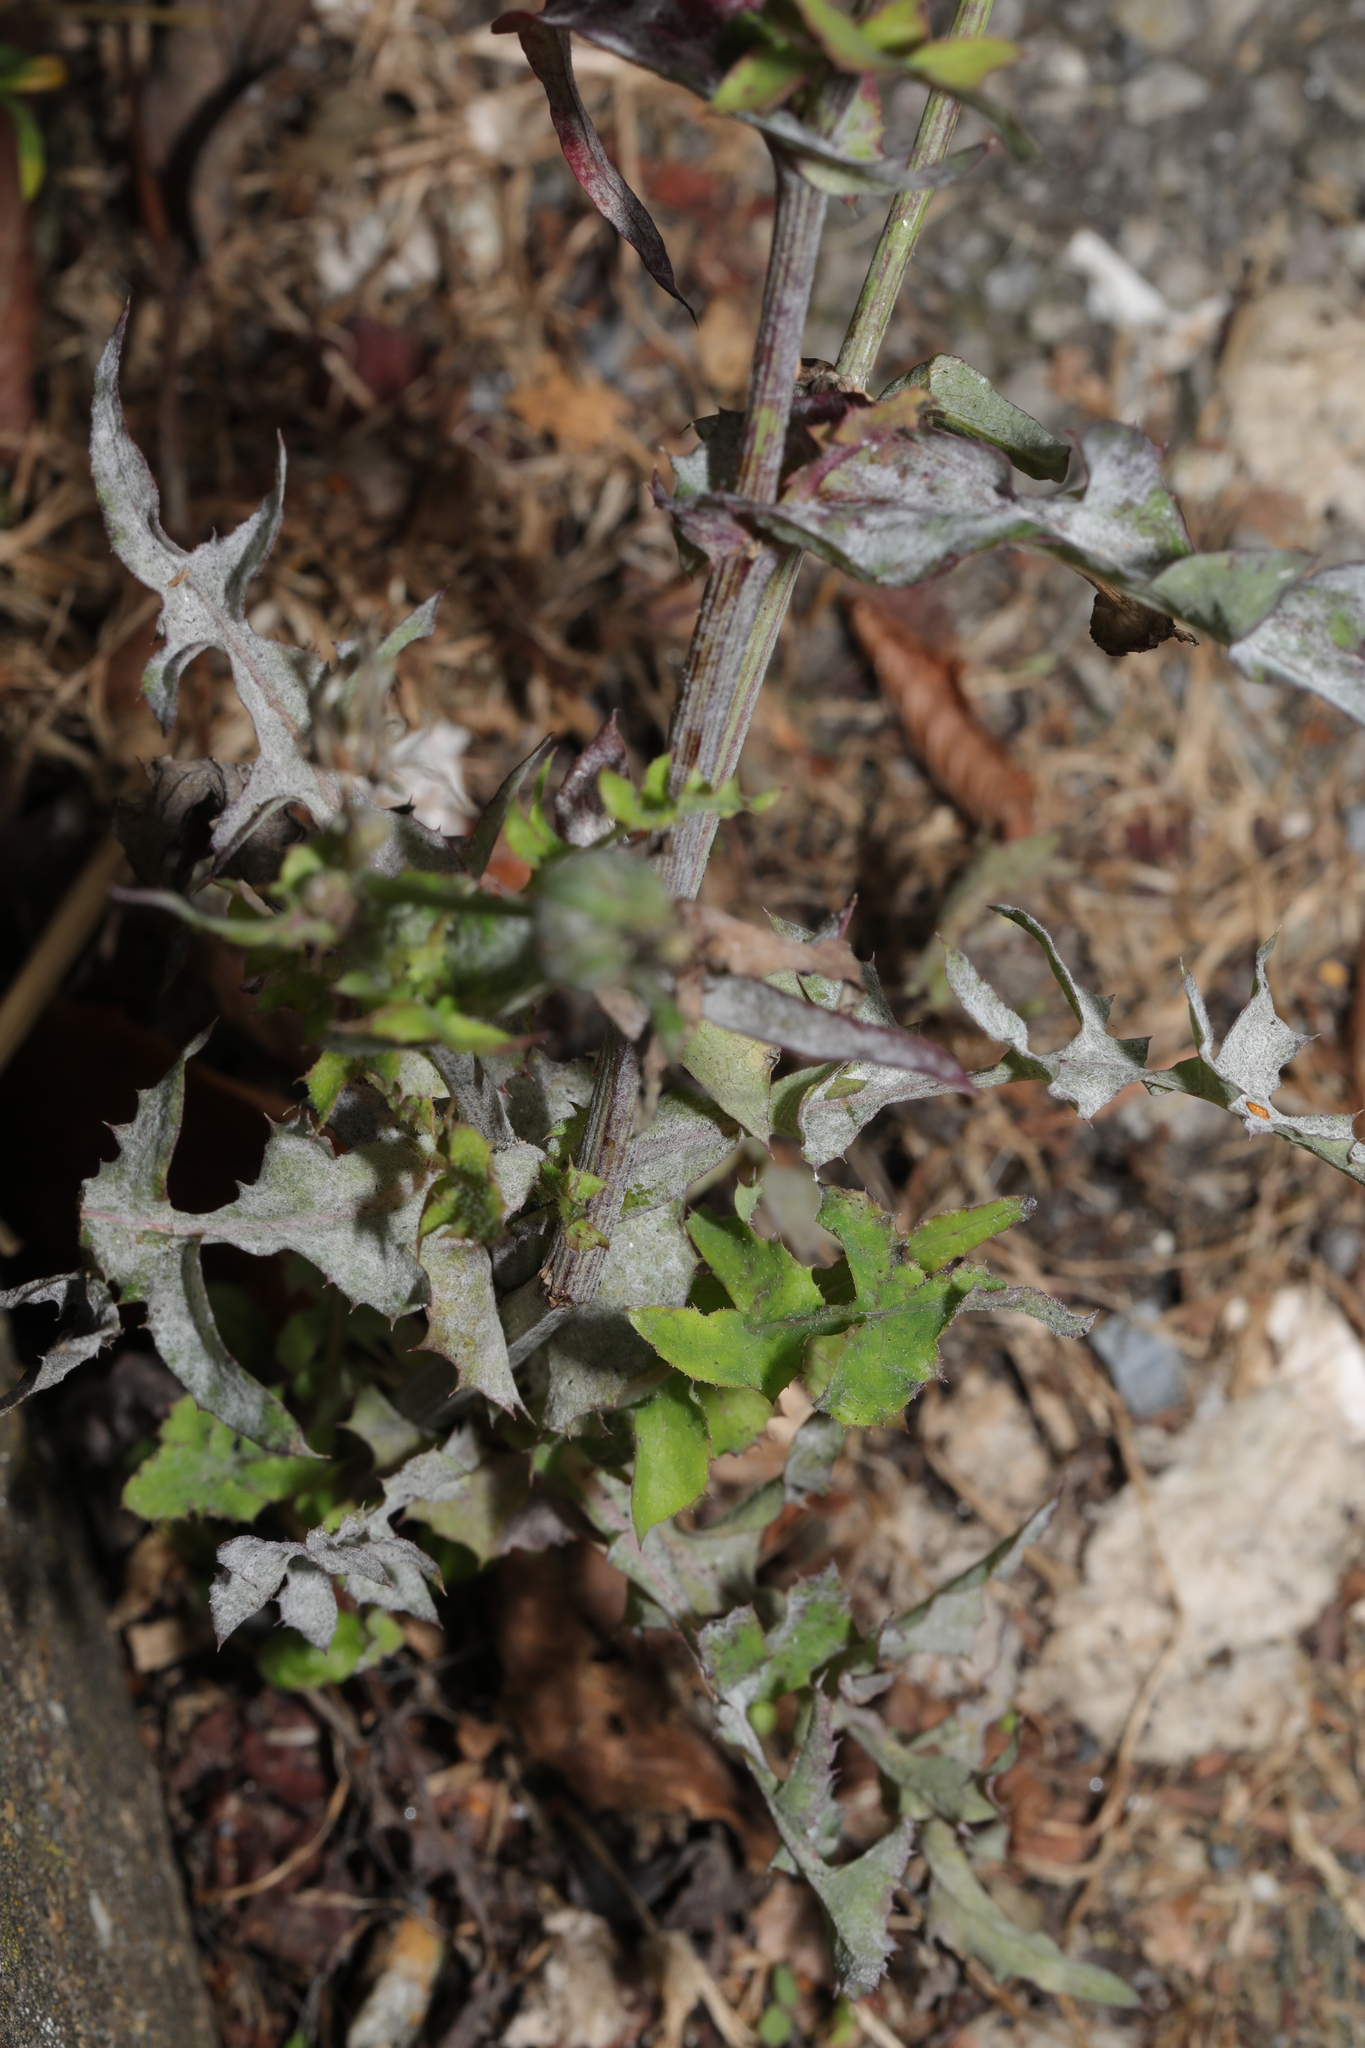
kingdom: Fungi
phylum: Ascomycota
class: Leotiomycetes
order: Helotiales
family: Erysiphaceae
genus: Golovinomyces
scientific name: Golovinomyces sonchicola
